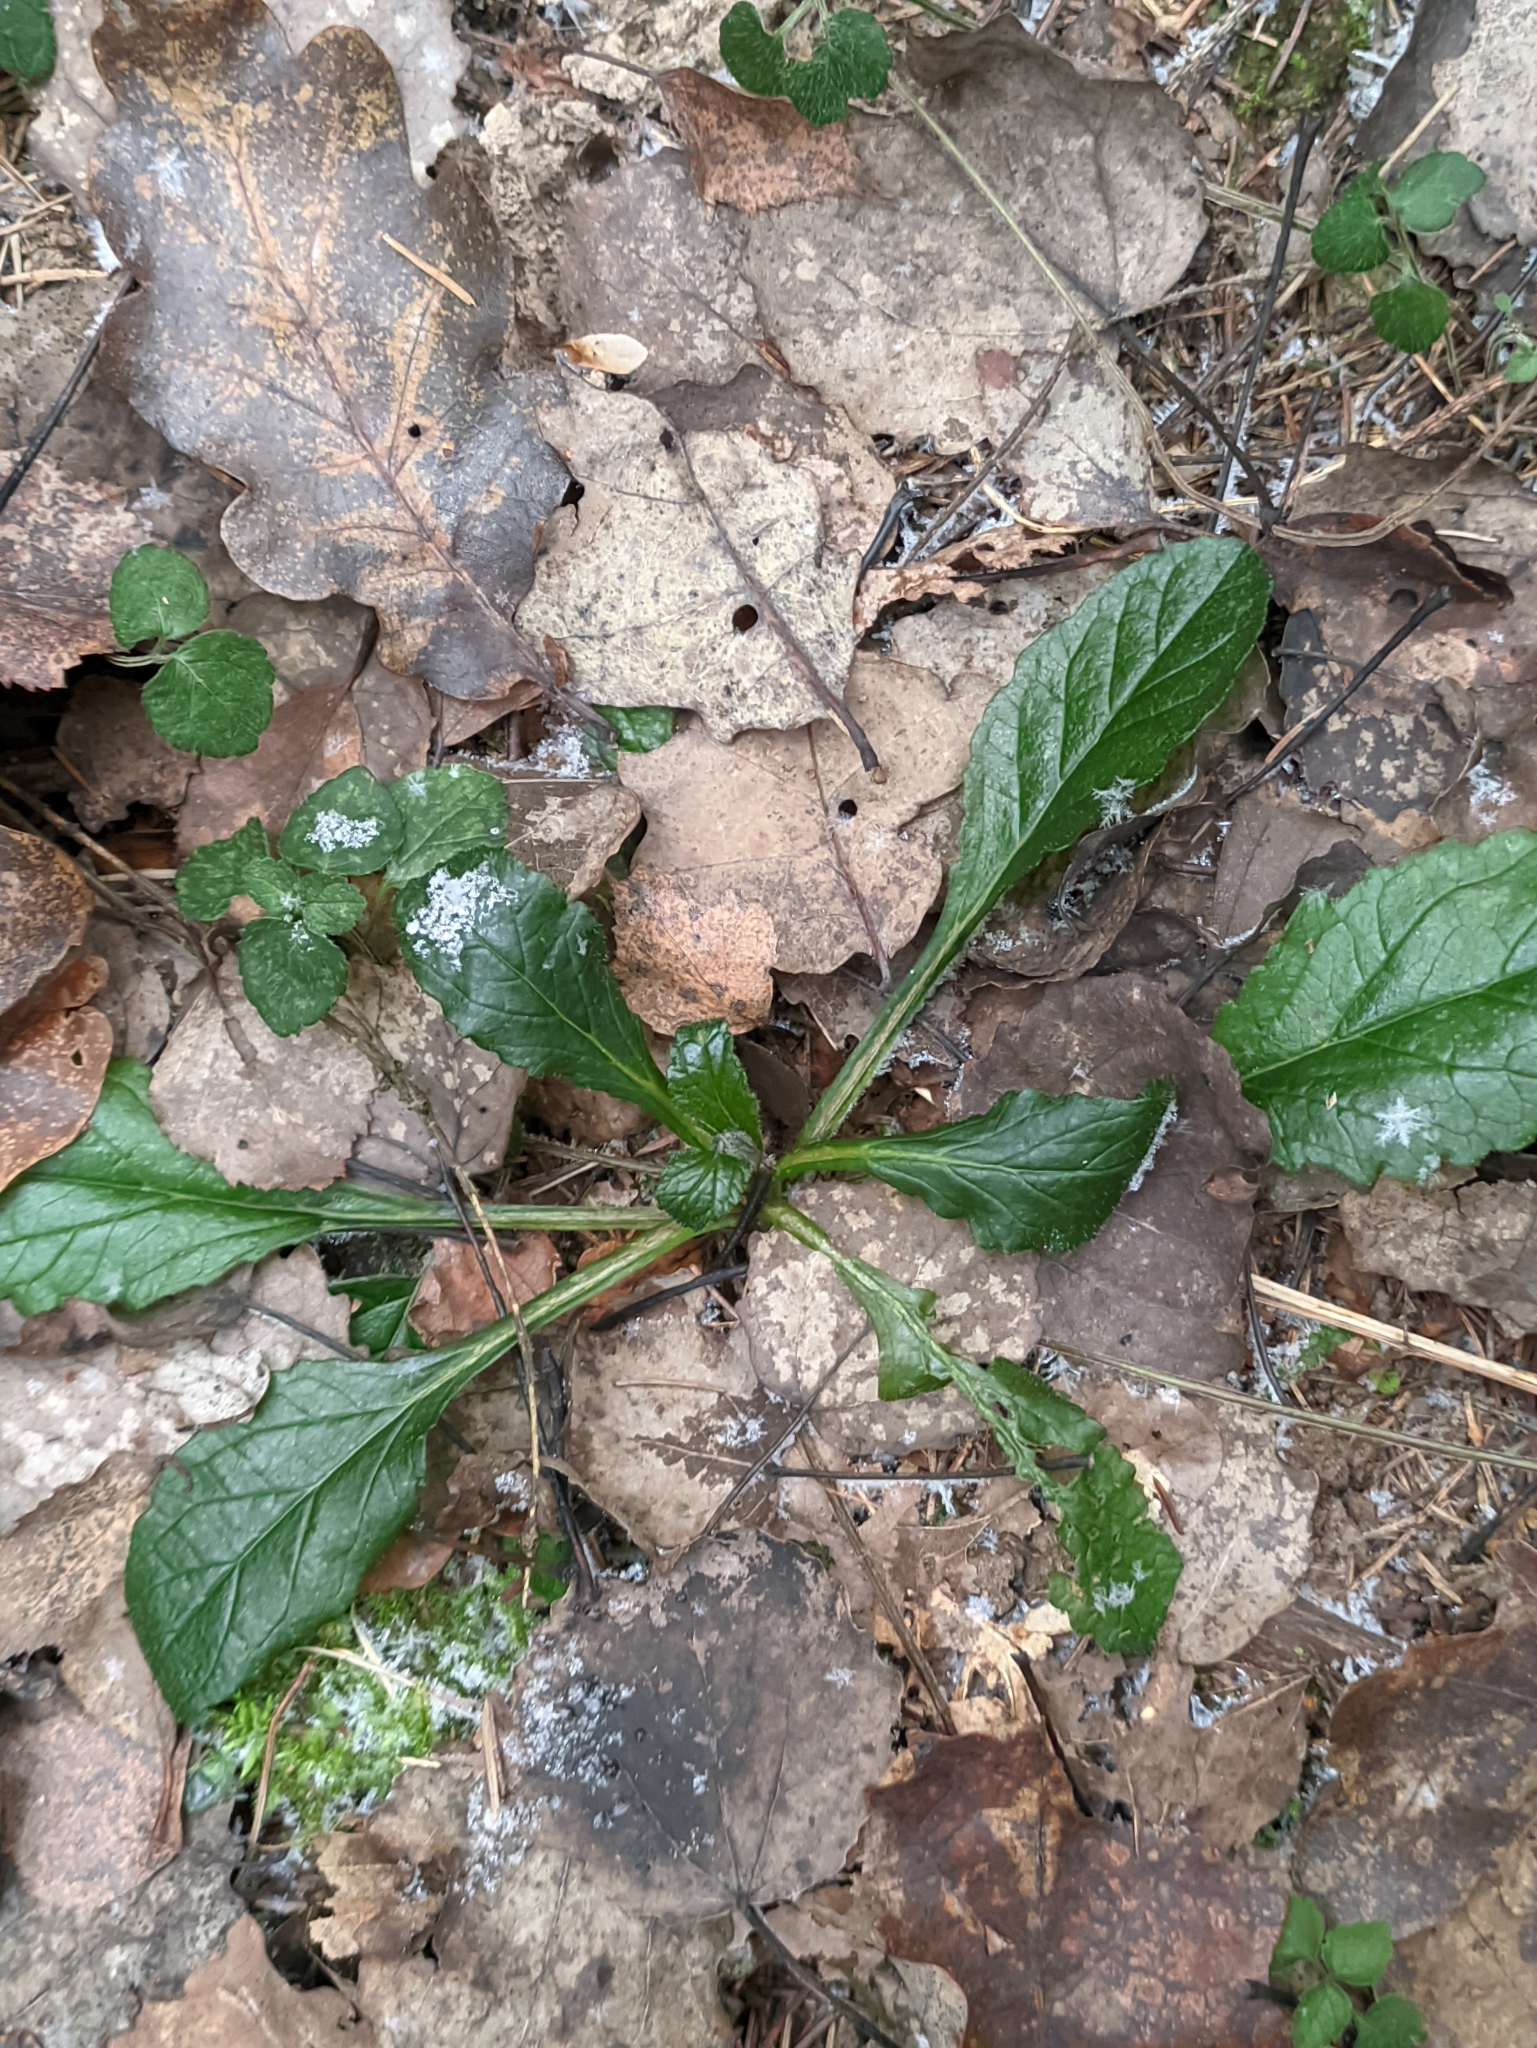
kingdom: Plantae
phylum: Tracheophyta
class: Magnoliopsida
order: Lamiales
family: Lamiaceae
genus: Ajuga
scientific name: Ajuga reptans
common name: Bugle
